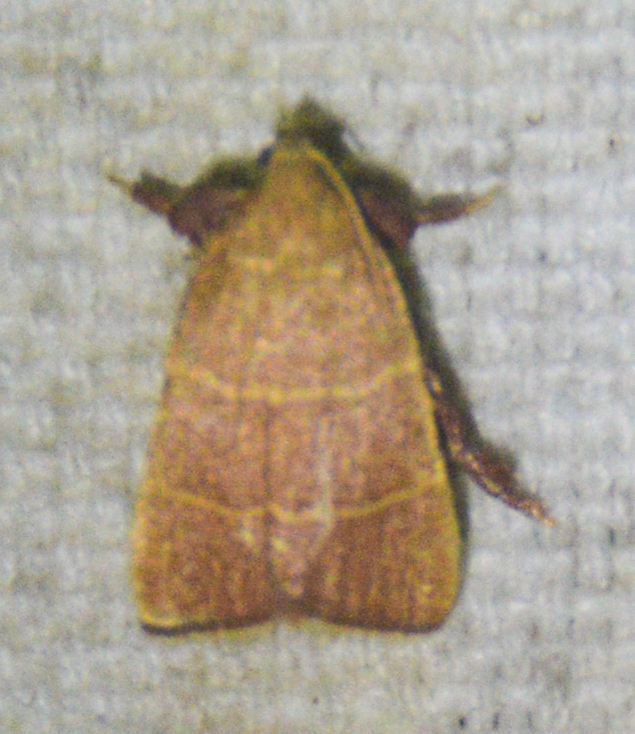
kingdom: Animalia
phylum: Arthropoda
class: Insecta
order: Lepidoptera
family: Pyralidae
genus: Parachma
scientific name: Parachma ochracealis
